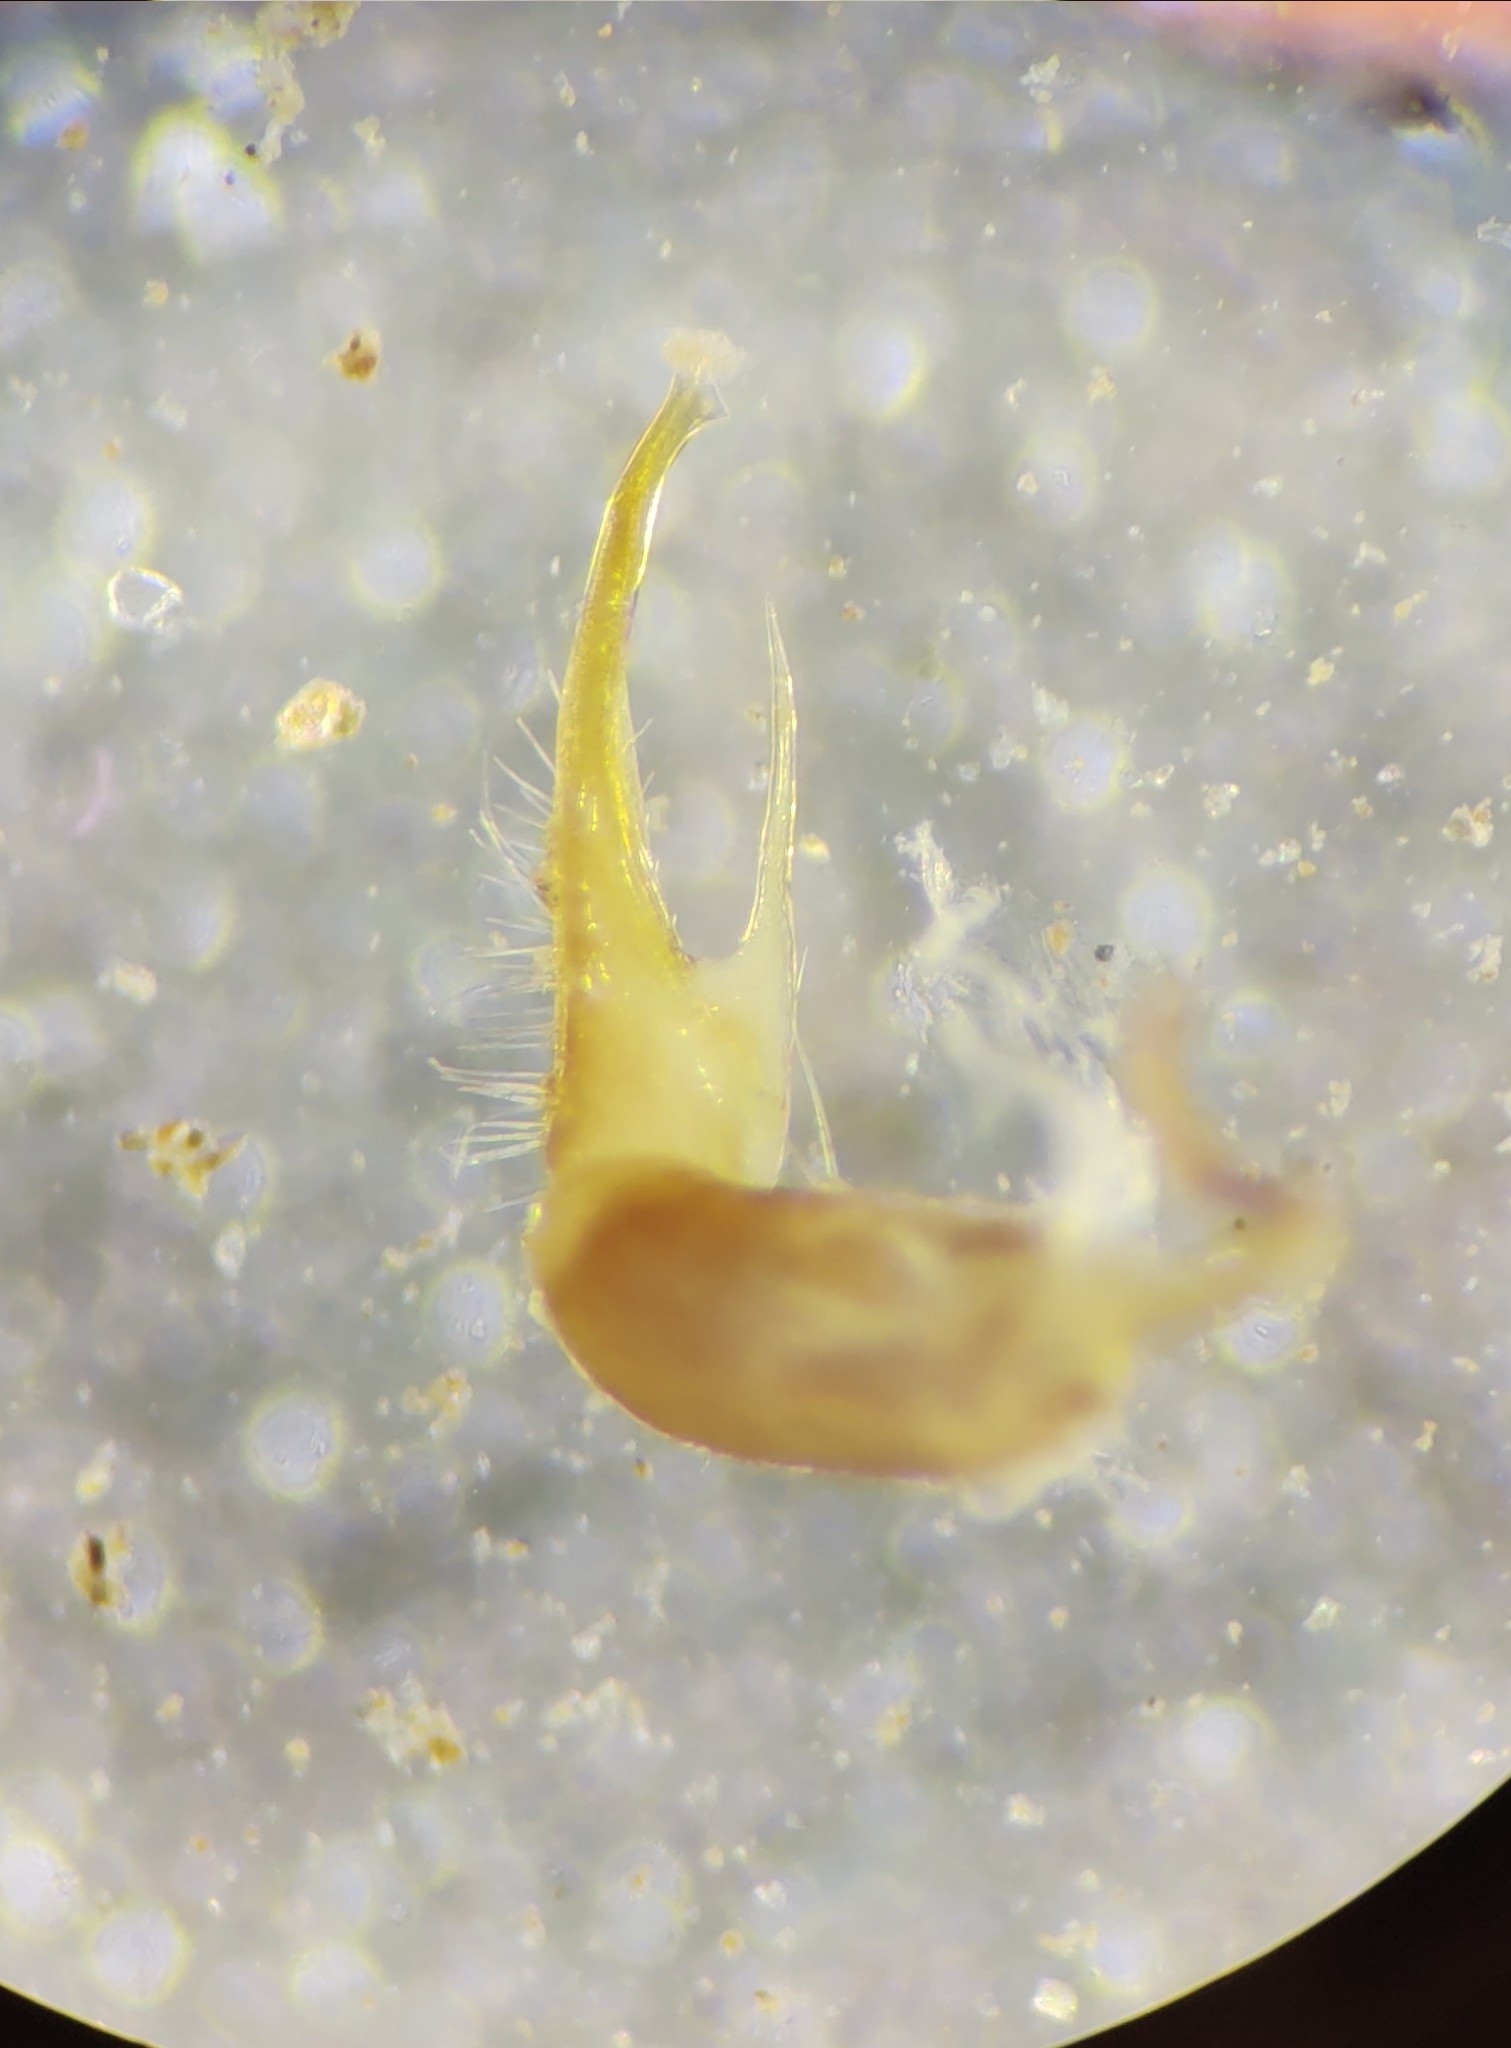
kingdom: Animalia
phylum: Arthropoda
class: Diplopoda
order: Polydesmida
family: Xystodesmidae
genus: Boraria
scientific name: Boraria stricta
